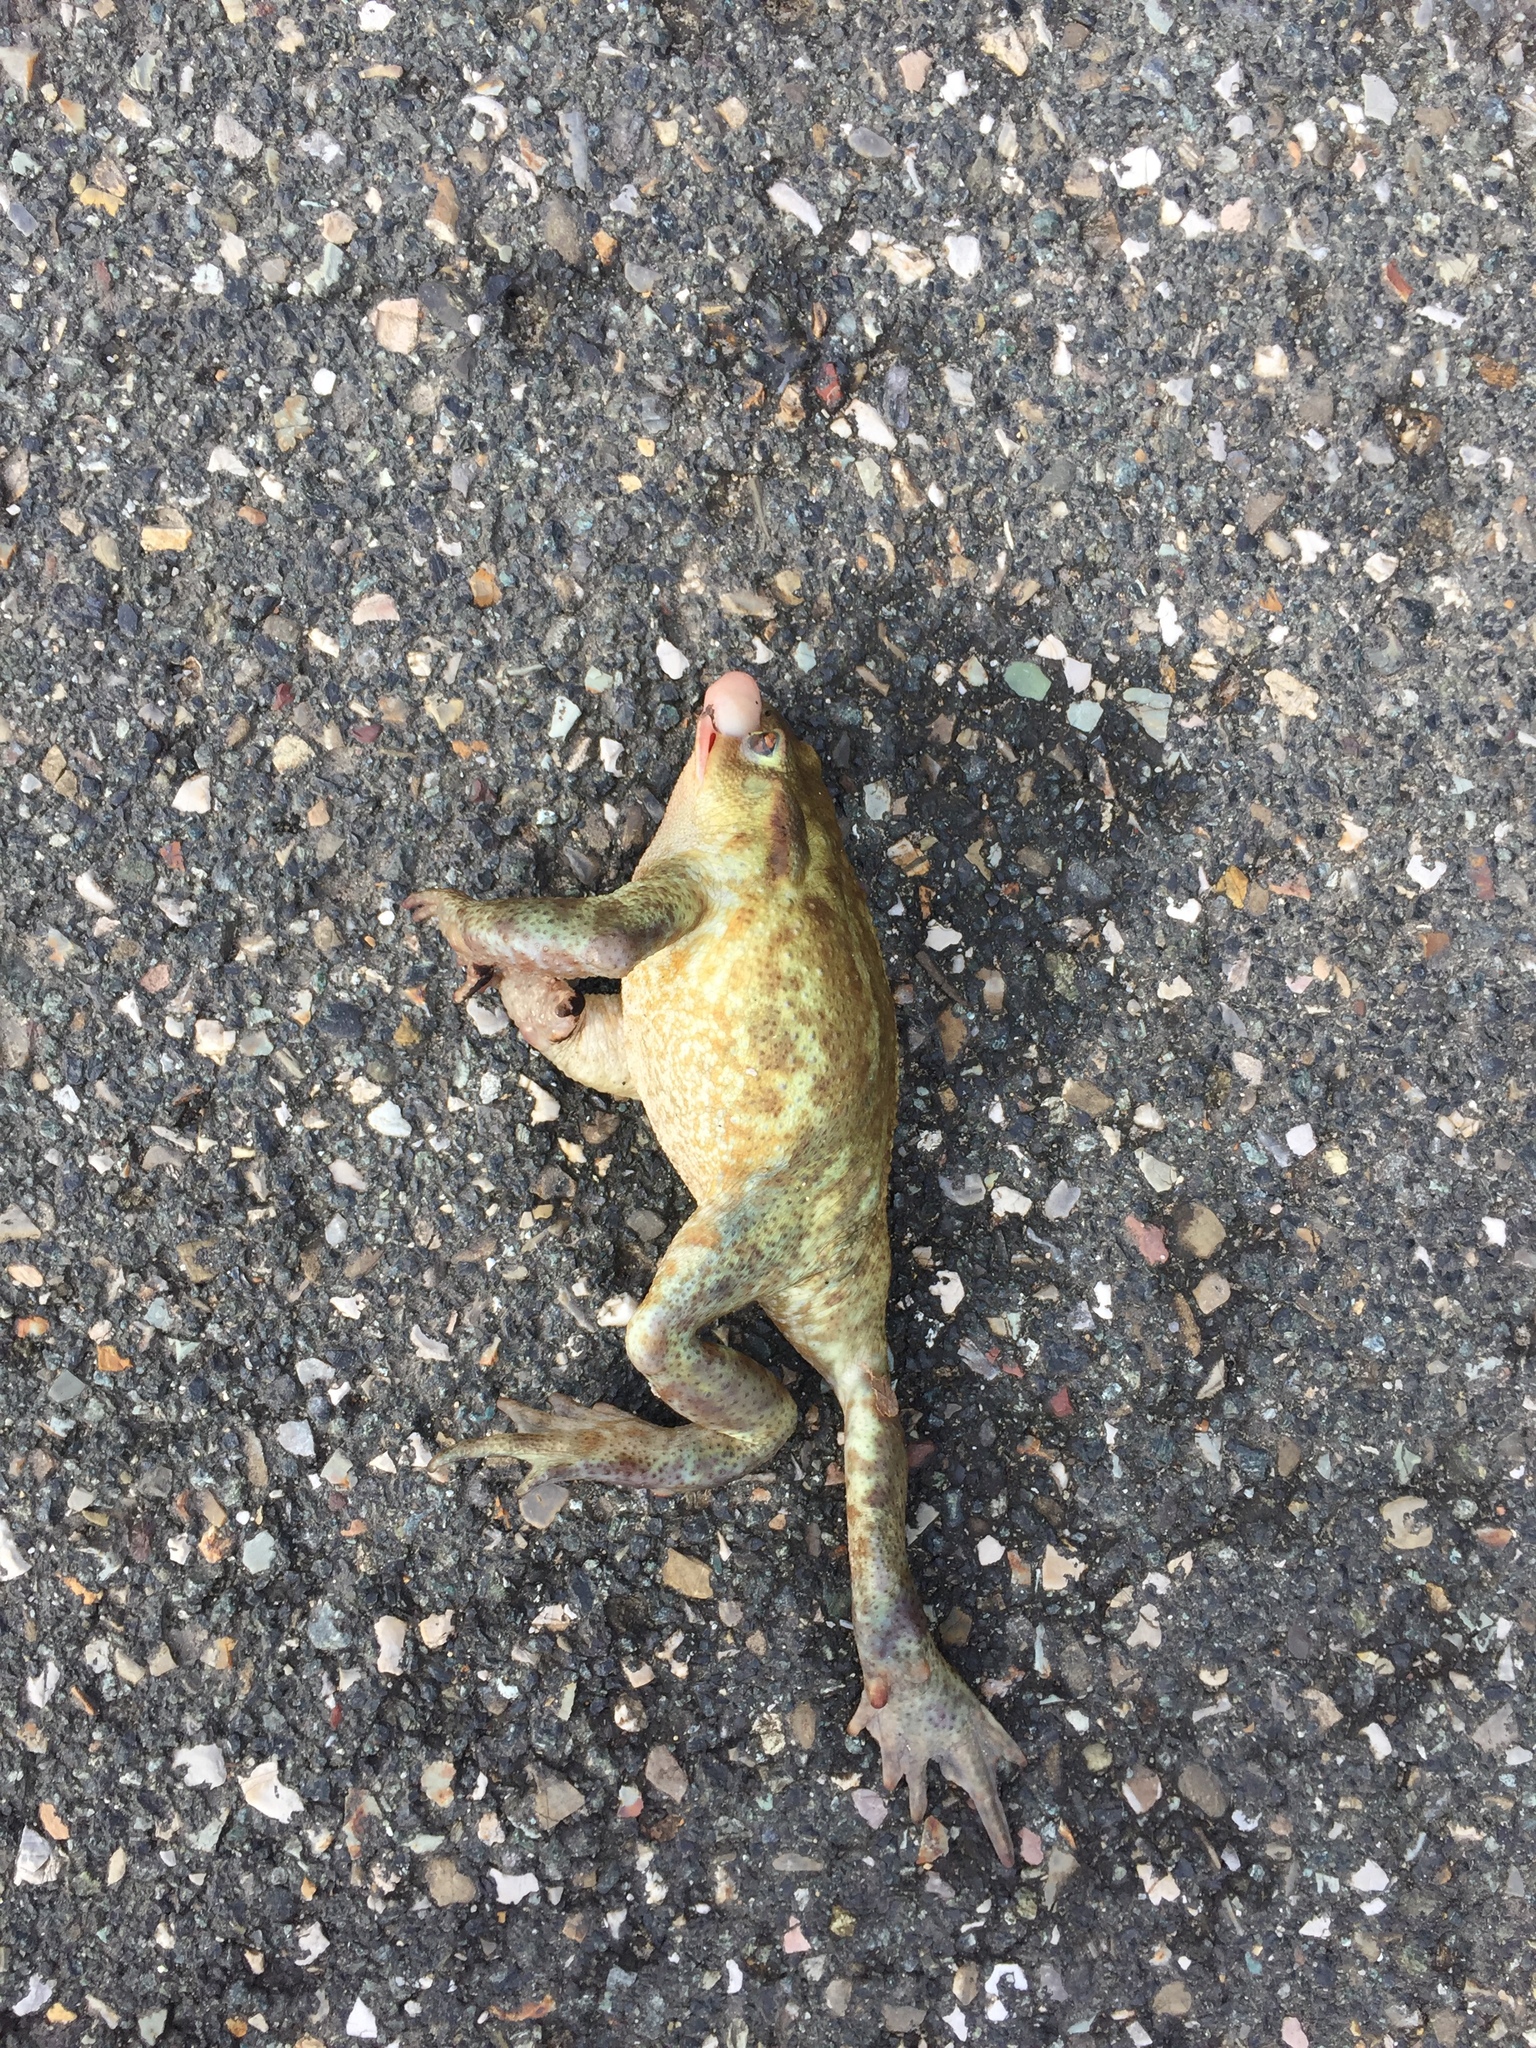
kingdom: Animalia
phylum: Chordata
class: Amphibia
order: Anura
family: Bufonidae
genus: Bufo
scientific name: Bufo bufo
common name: Common toad
